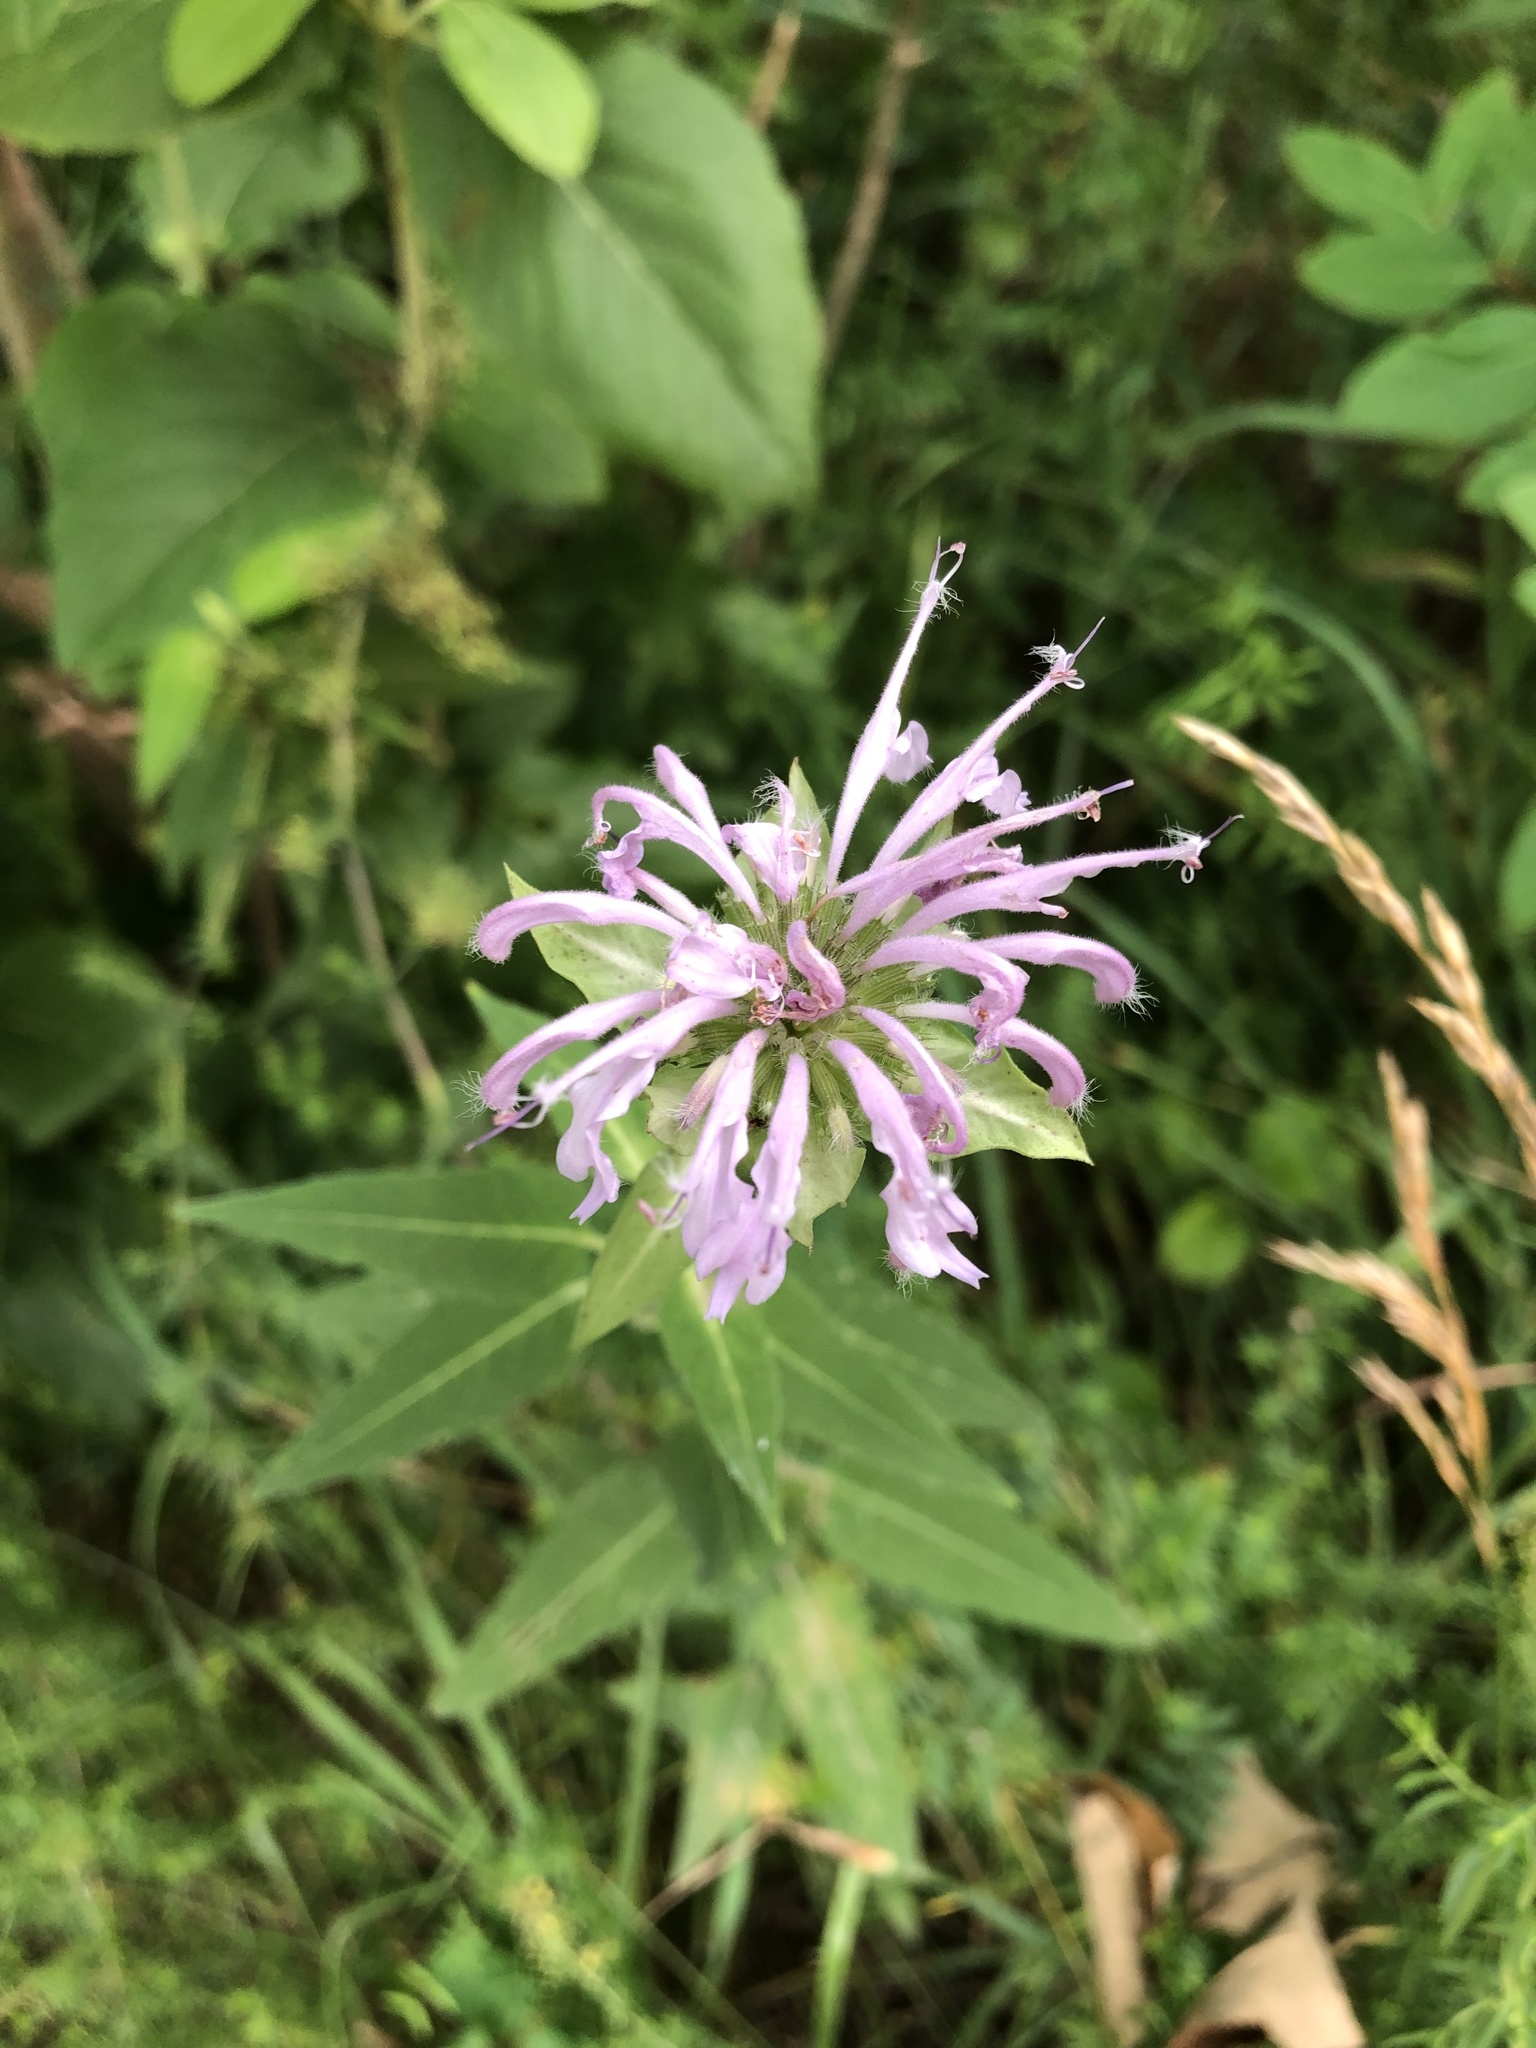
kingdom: Plantae
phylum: Tracheophyta
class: Magnoliopsida
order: Lamiales
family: Lamiaceae
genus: Monarda
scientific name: Monarda fistulosa
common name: Purple beebalm
